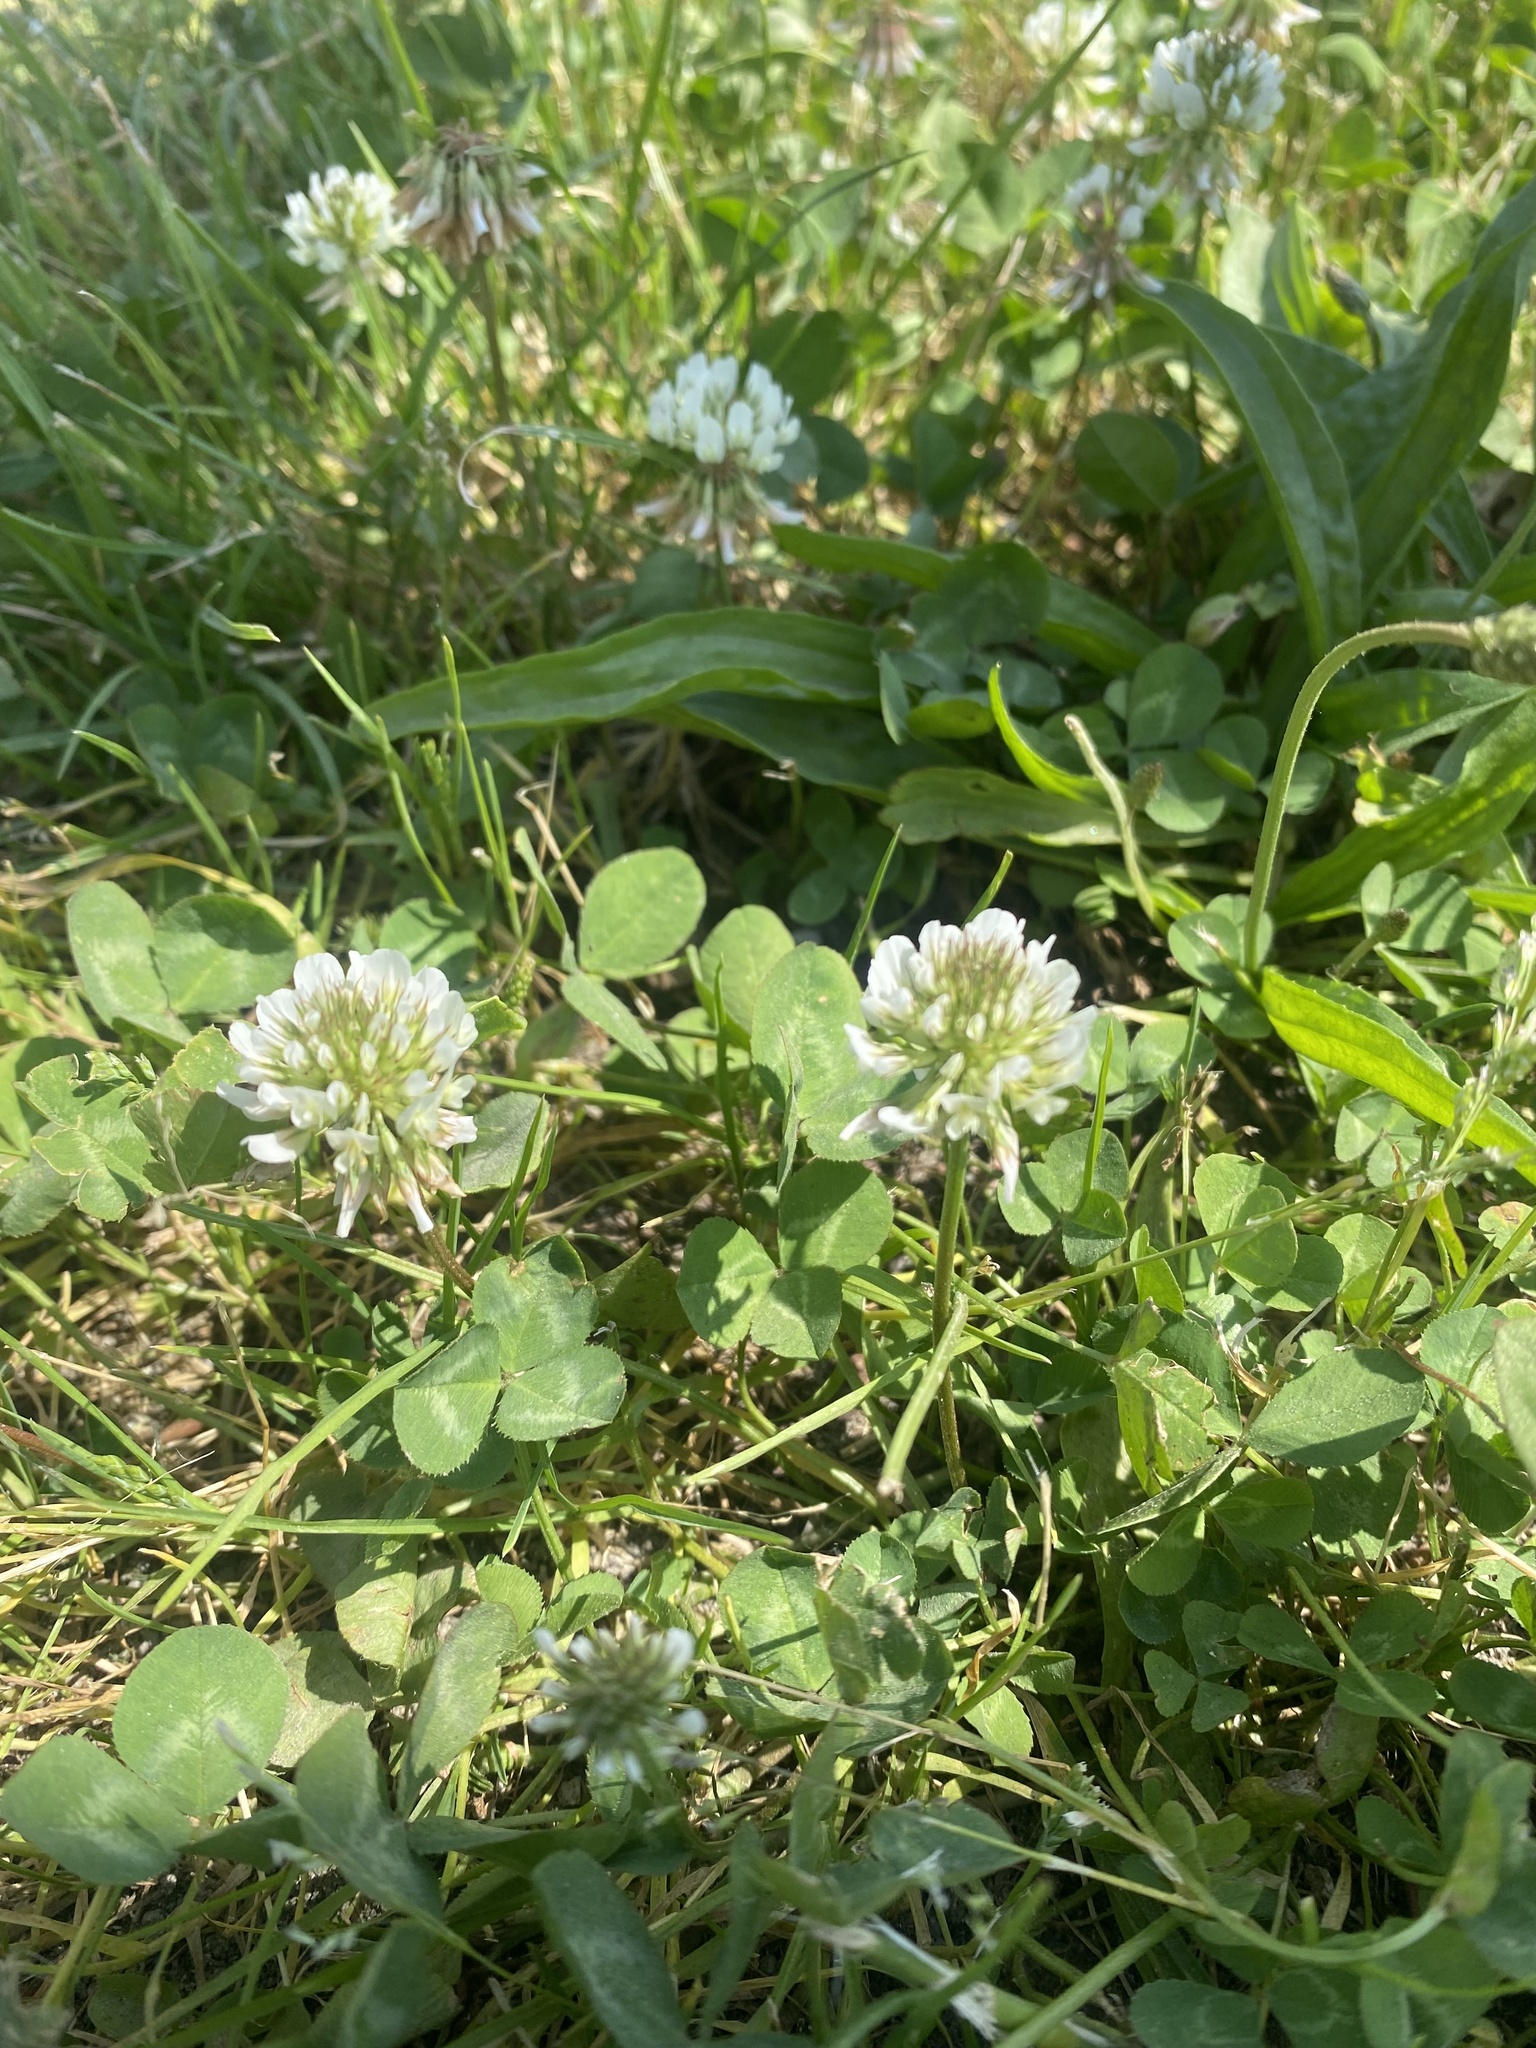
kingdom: Plantae
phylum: Tracheophyta
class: Magnoliopsida
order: Fabales
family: Fabaceae
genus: Trifolium
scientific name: Trifolium repens
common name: White clover
